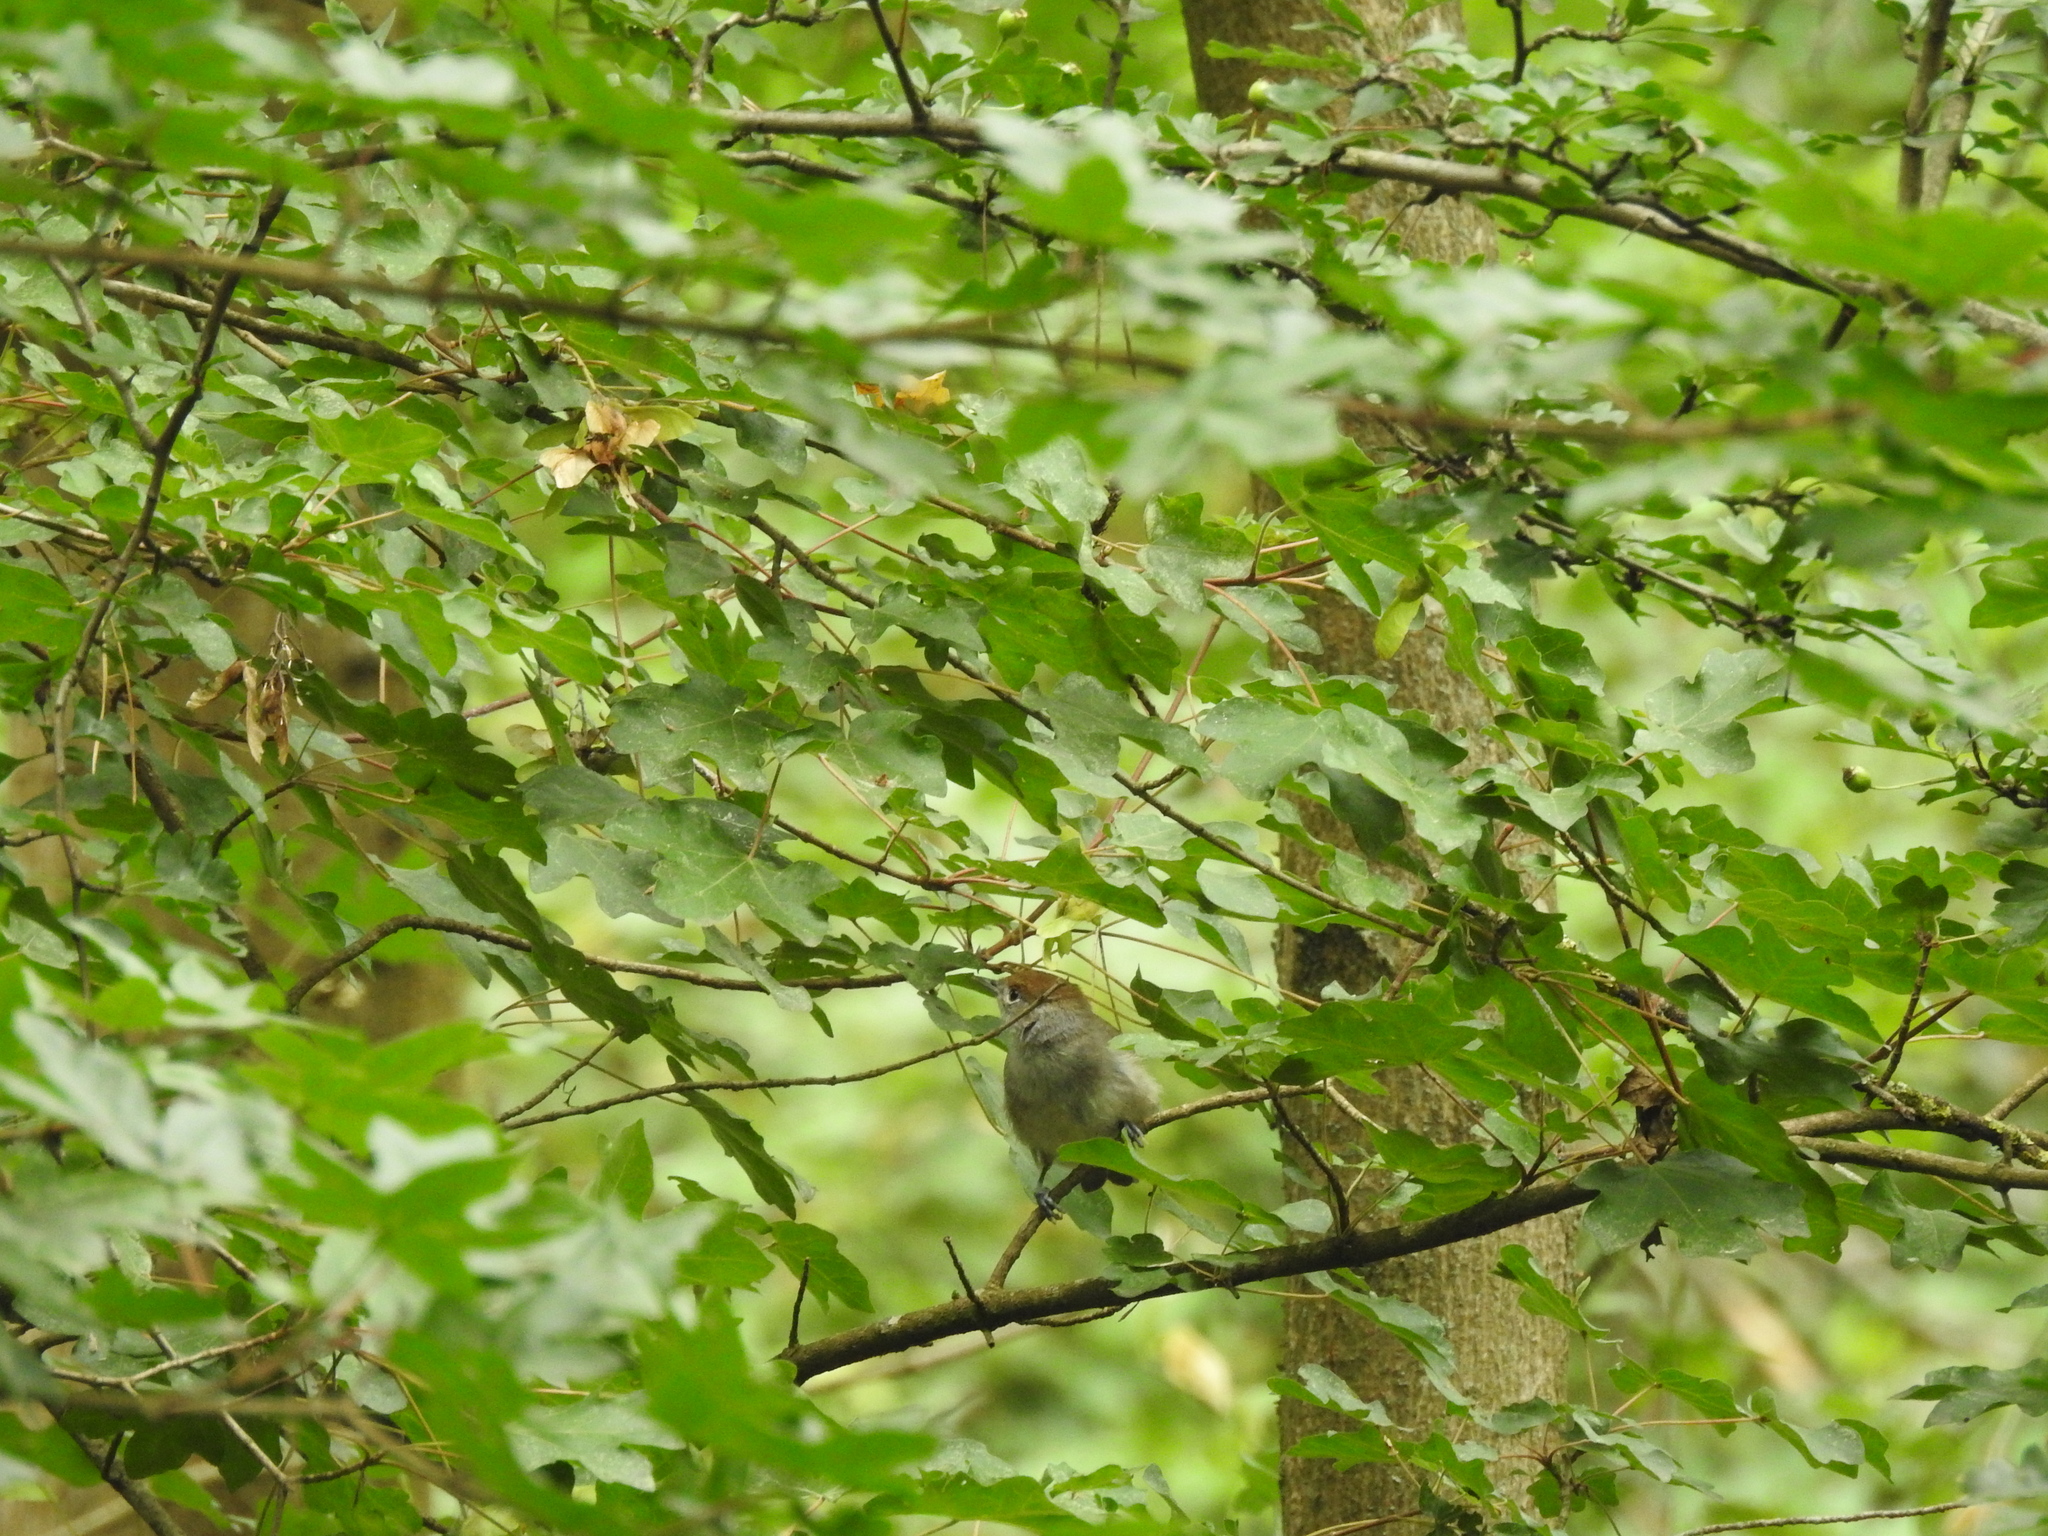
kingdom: Animalia
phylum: Chordata
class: Aves
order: Passeriformes
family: Sylviidae
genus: Sylvia
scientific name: Sylvia atricapilla
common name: Eurasian blackcap
